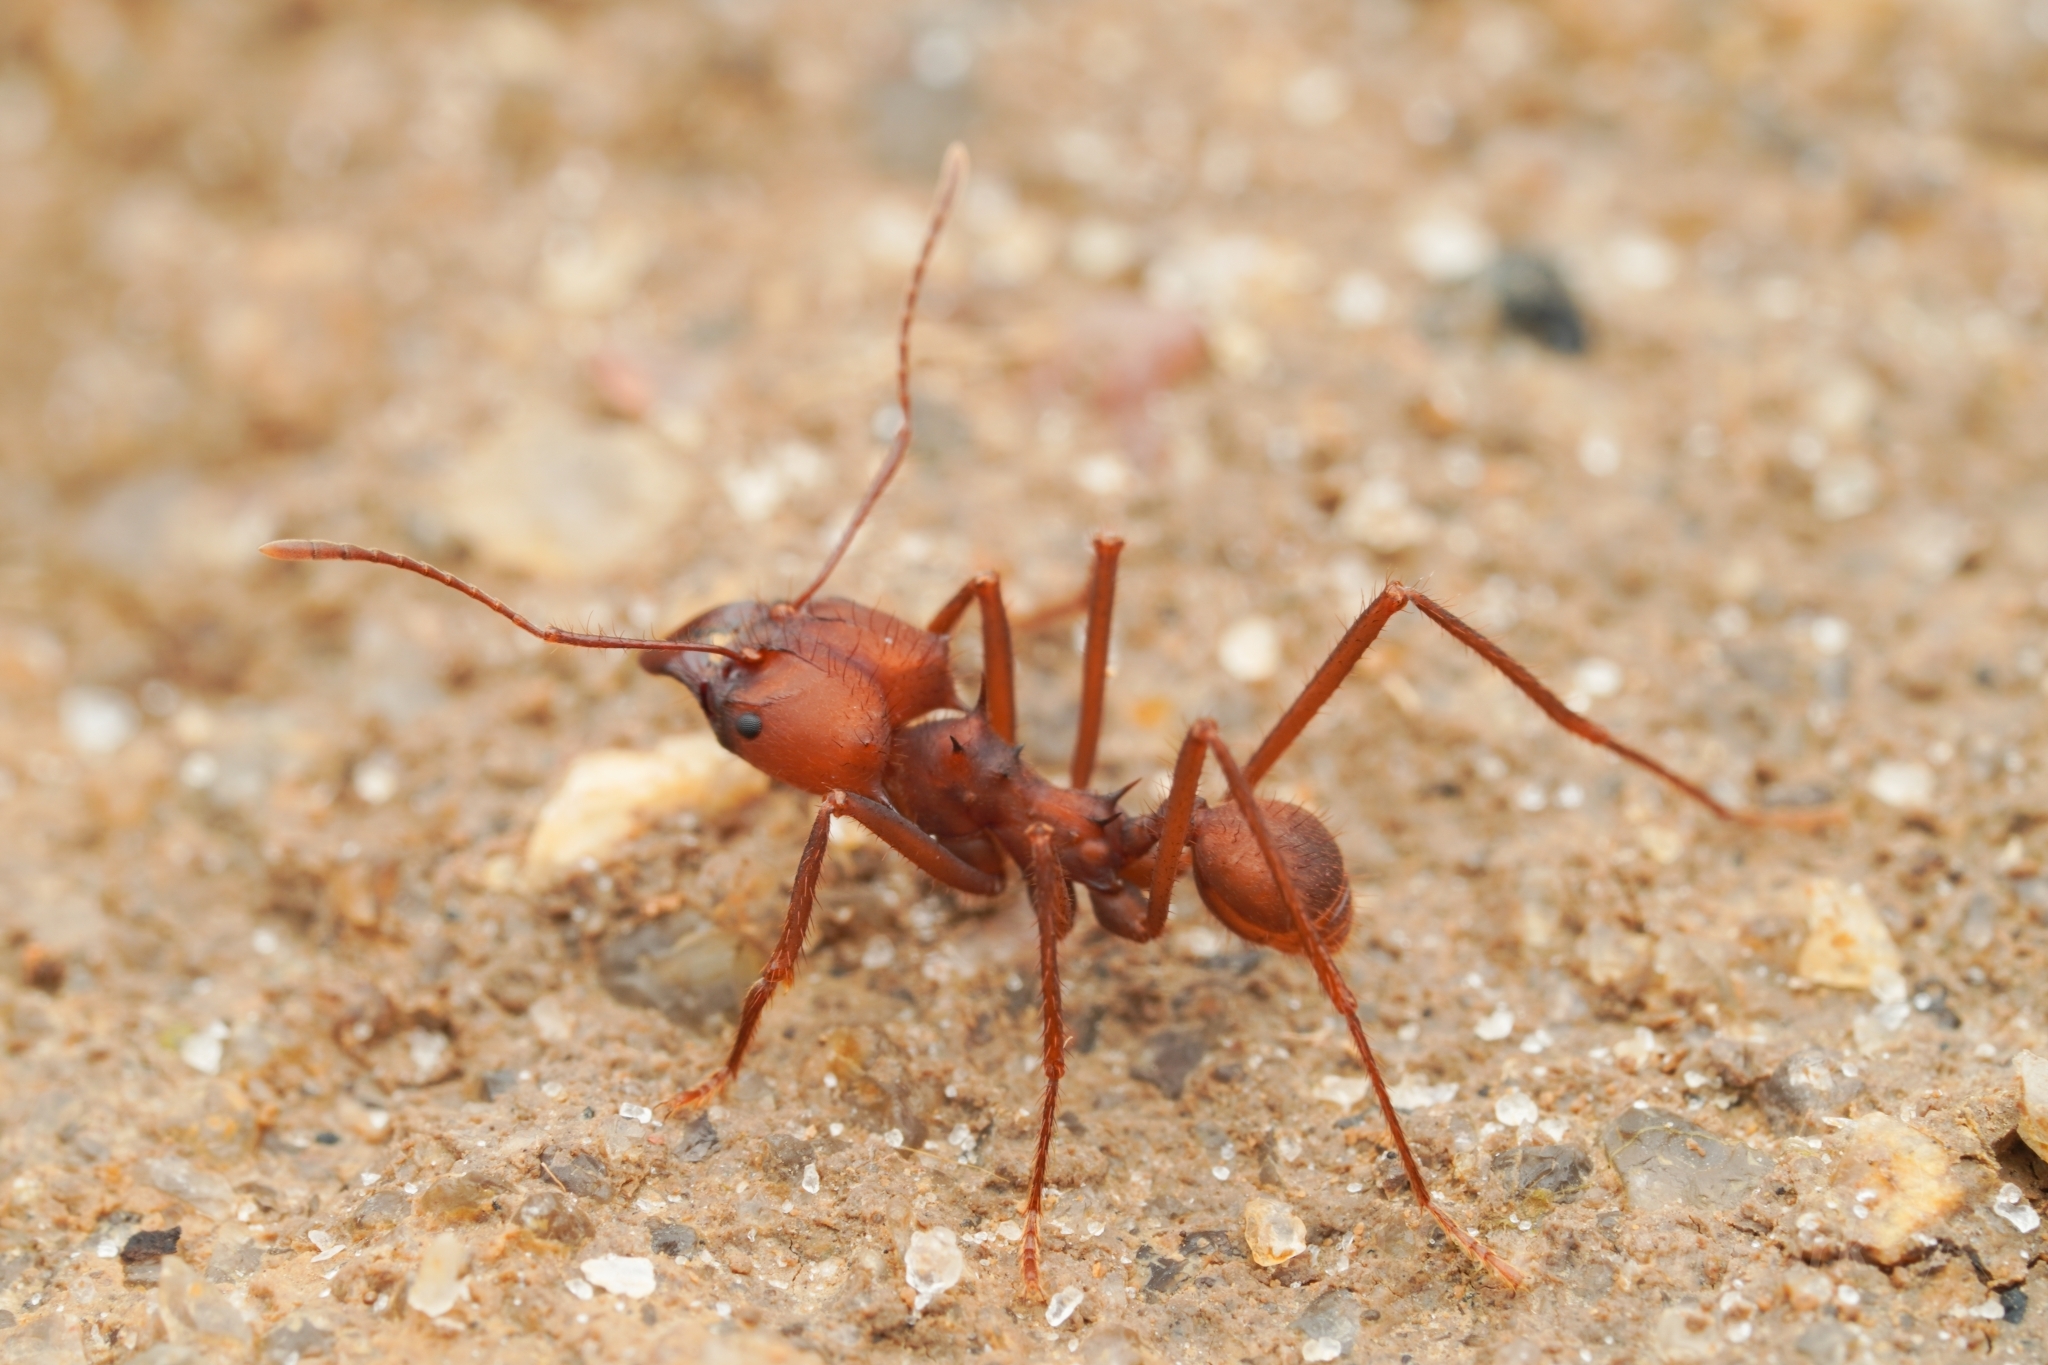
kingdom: Animalia
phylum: Arthropoda
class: Insecta
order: Hymenoptera
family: Formicidae
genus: Atta
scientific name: Atta sexdens
